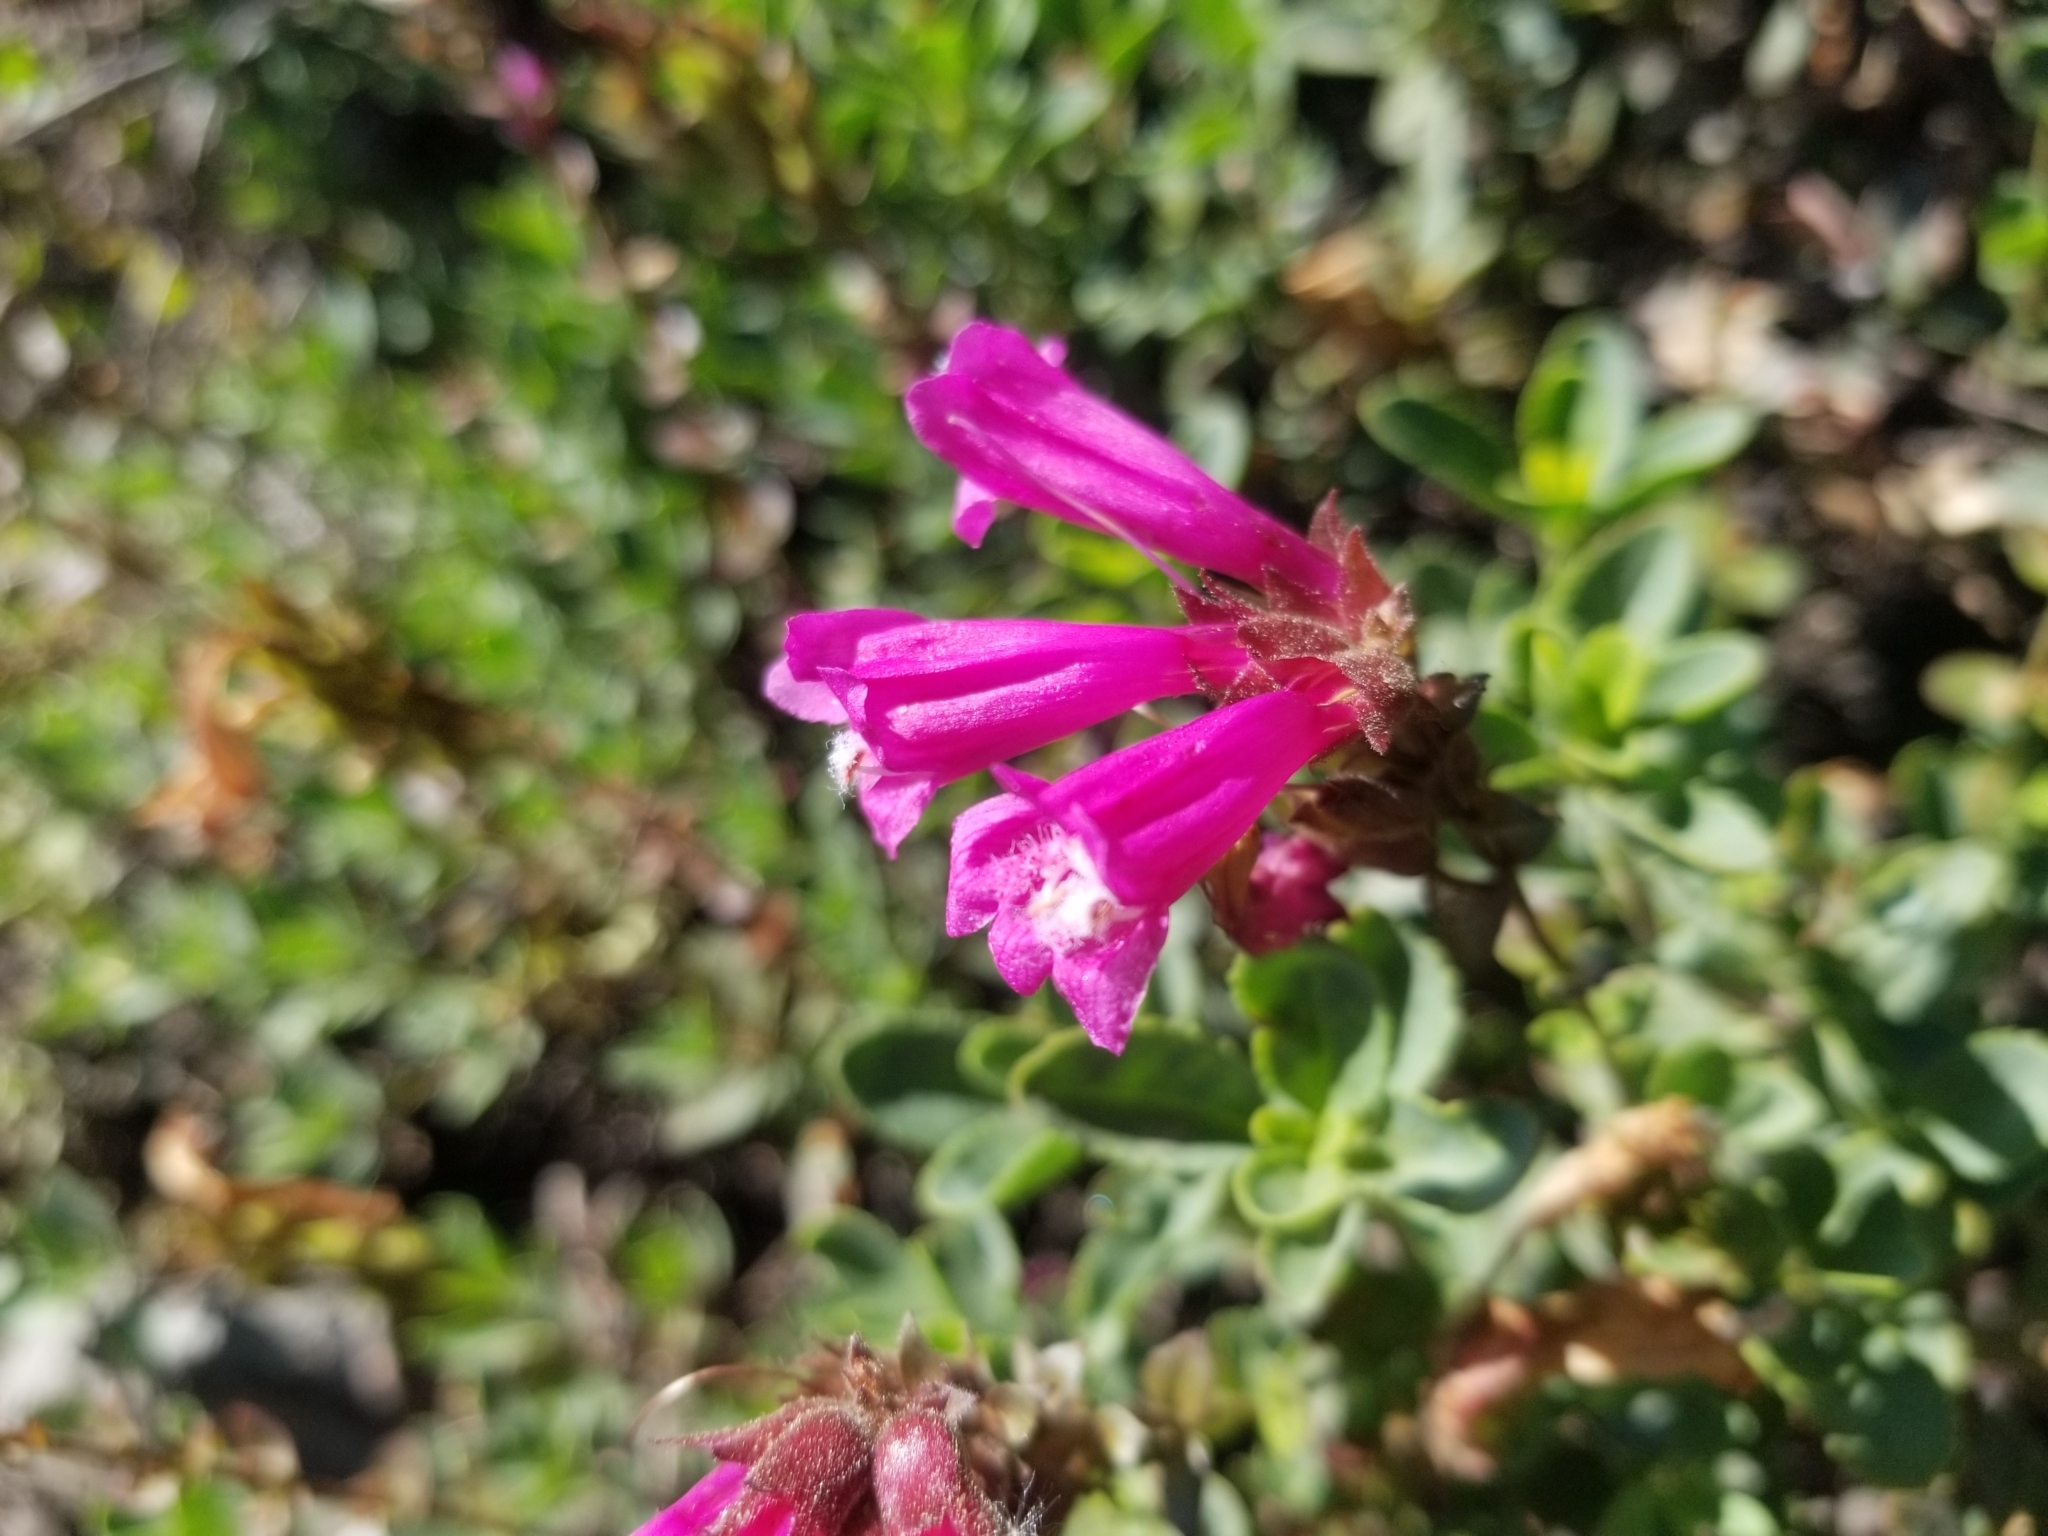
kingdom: Plantae
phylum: Tracheophyta
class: Magnoliopsida
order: Lamiales
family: Plantaginaceae
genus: Penstemon
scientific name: Penstemon newberryi
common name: Mountain-pride
